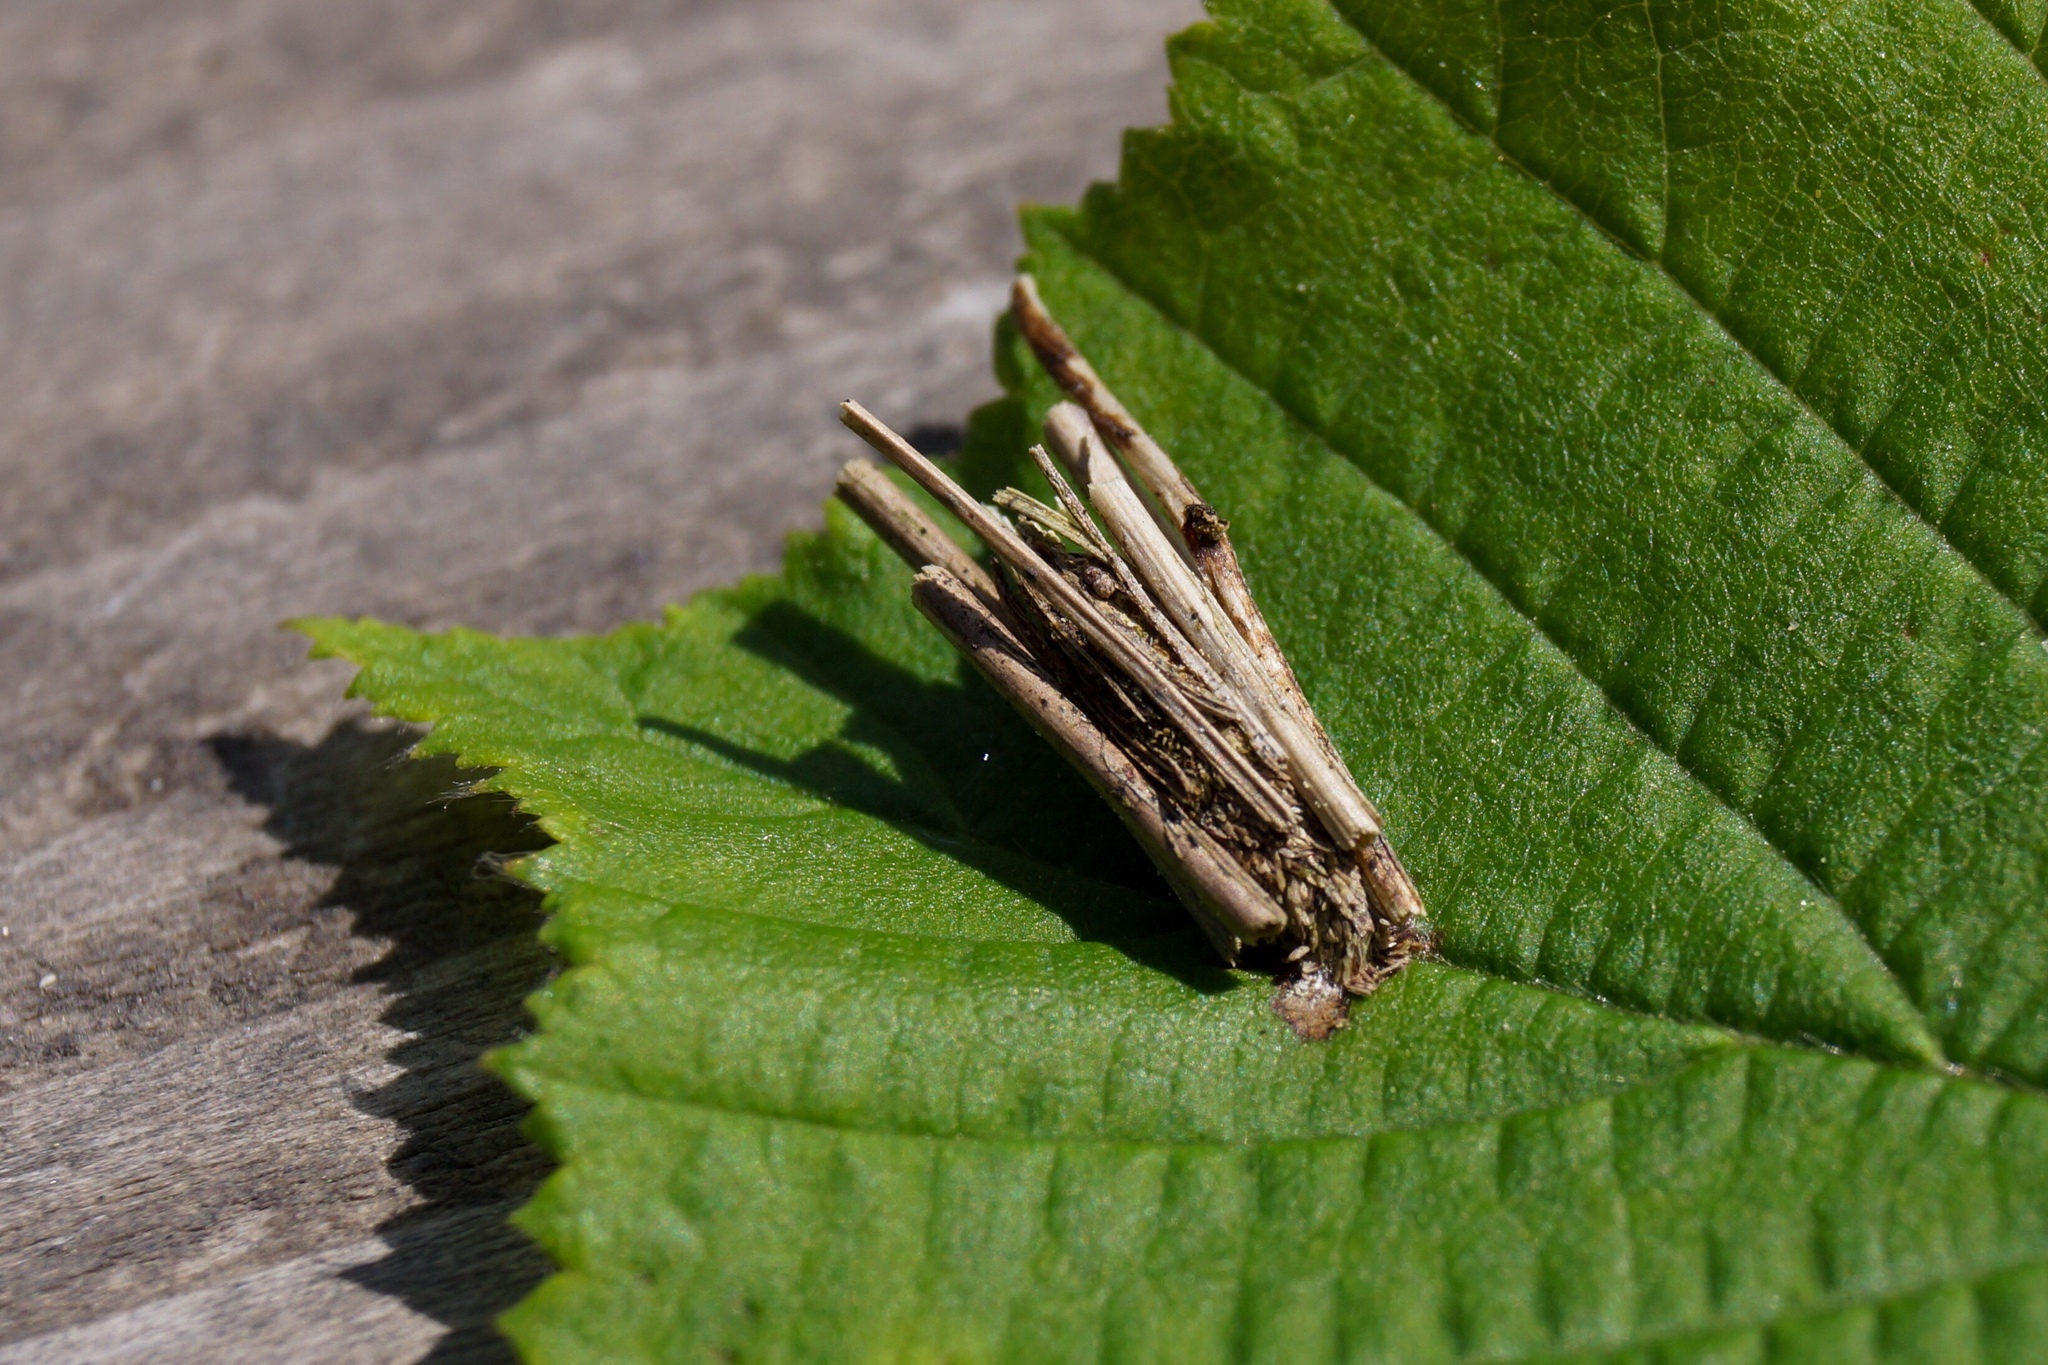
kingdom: Animalia
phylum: Arthropoda
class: Insecta
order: Lepidoptera
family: Psychidae
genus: Psyche
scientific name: Psyche casta
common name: Common sweep
